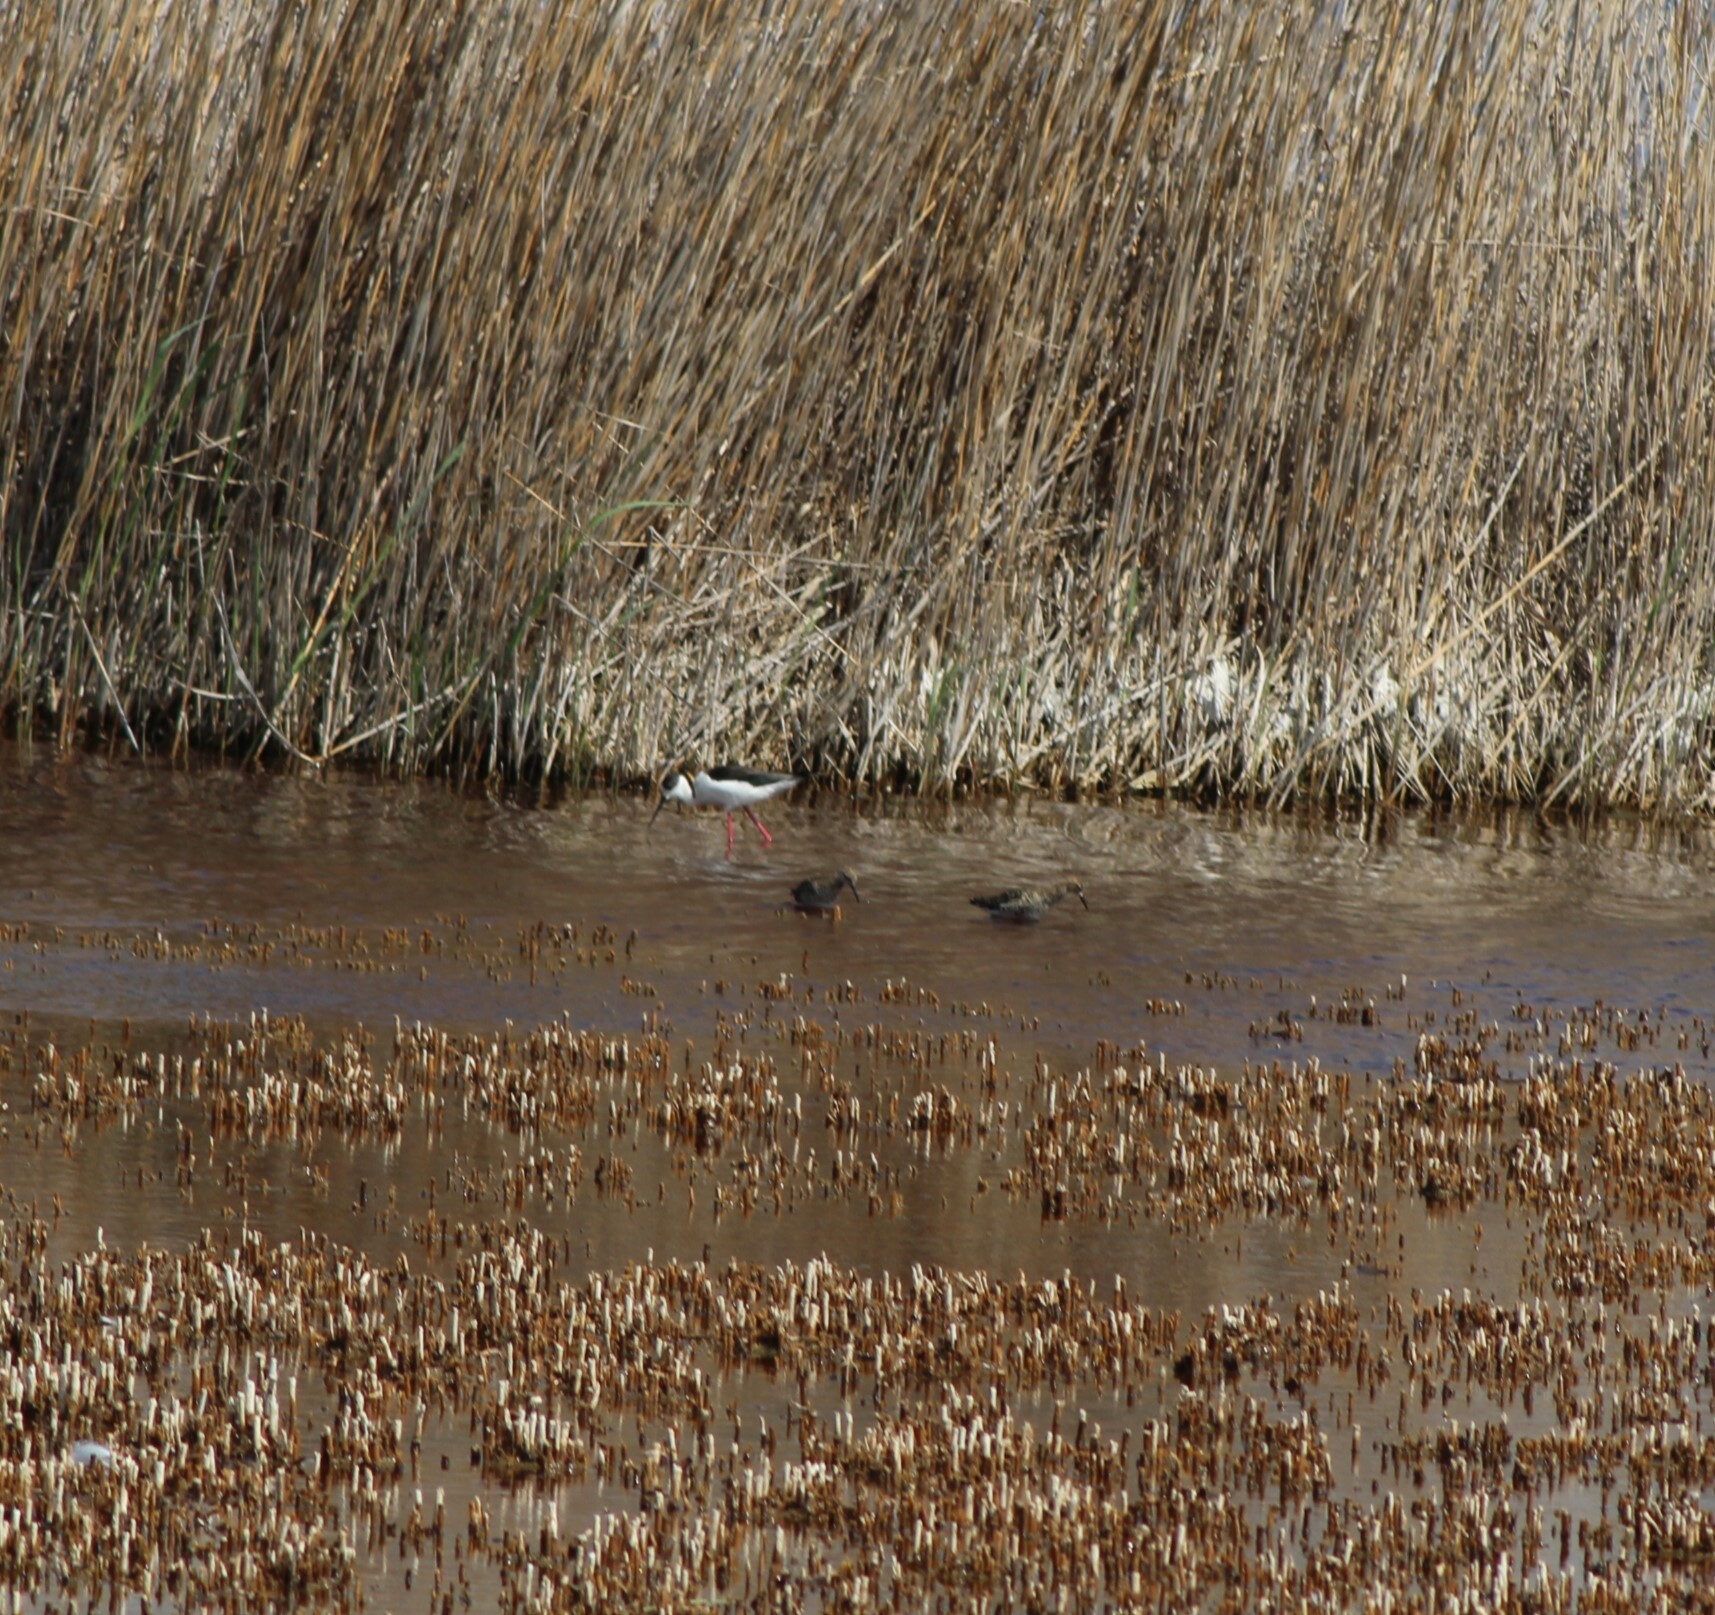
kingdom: Animalia
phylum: Chordata
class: Aves
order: Charadriiformes
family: Recurvirostridae
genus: Himantopus
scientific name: Himantopus himantopus
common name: Black-winged stilt
